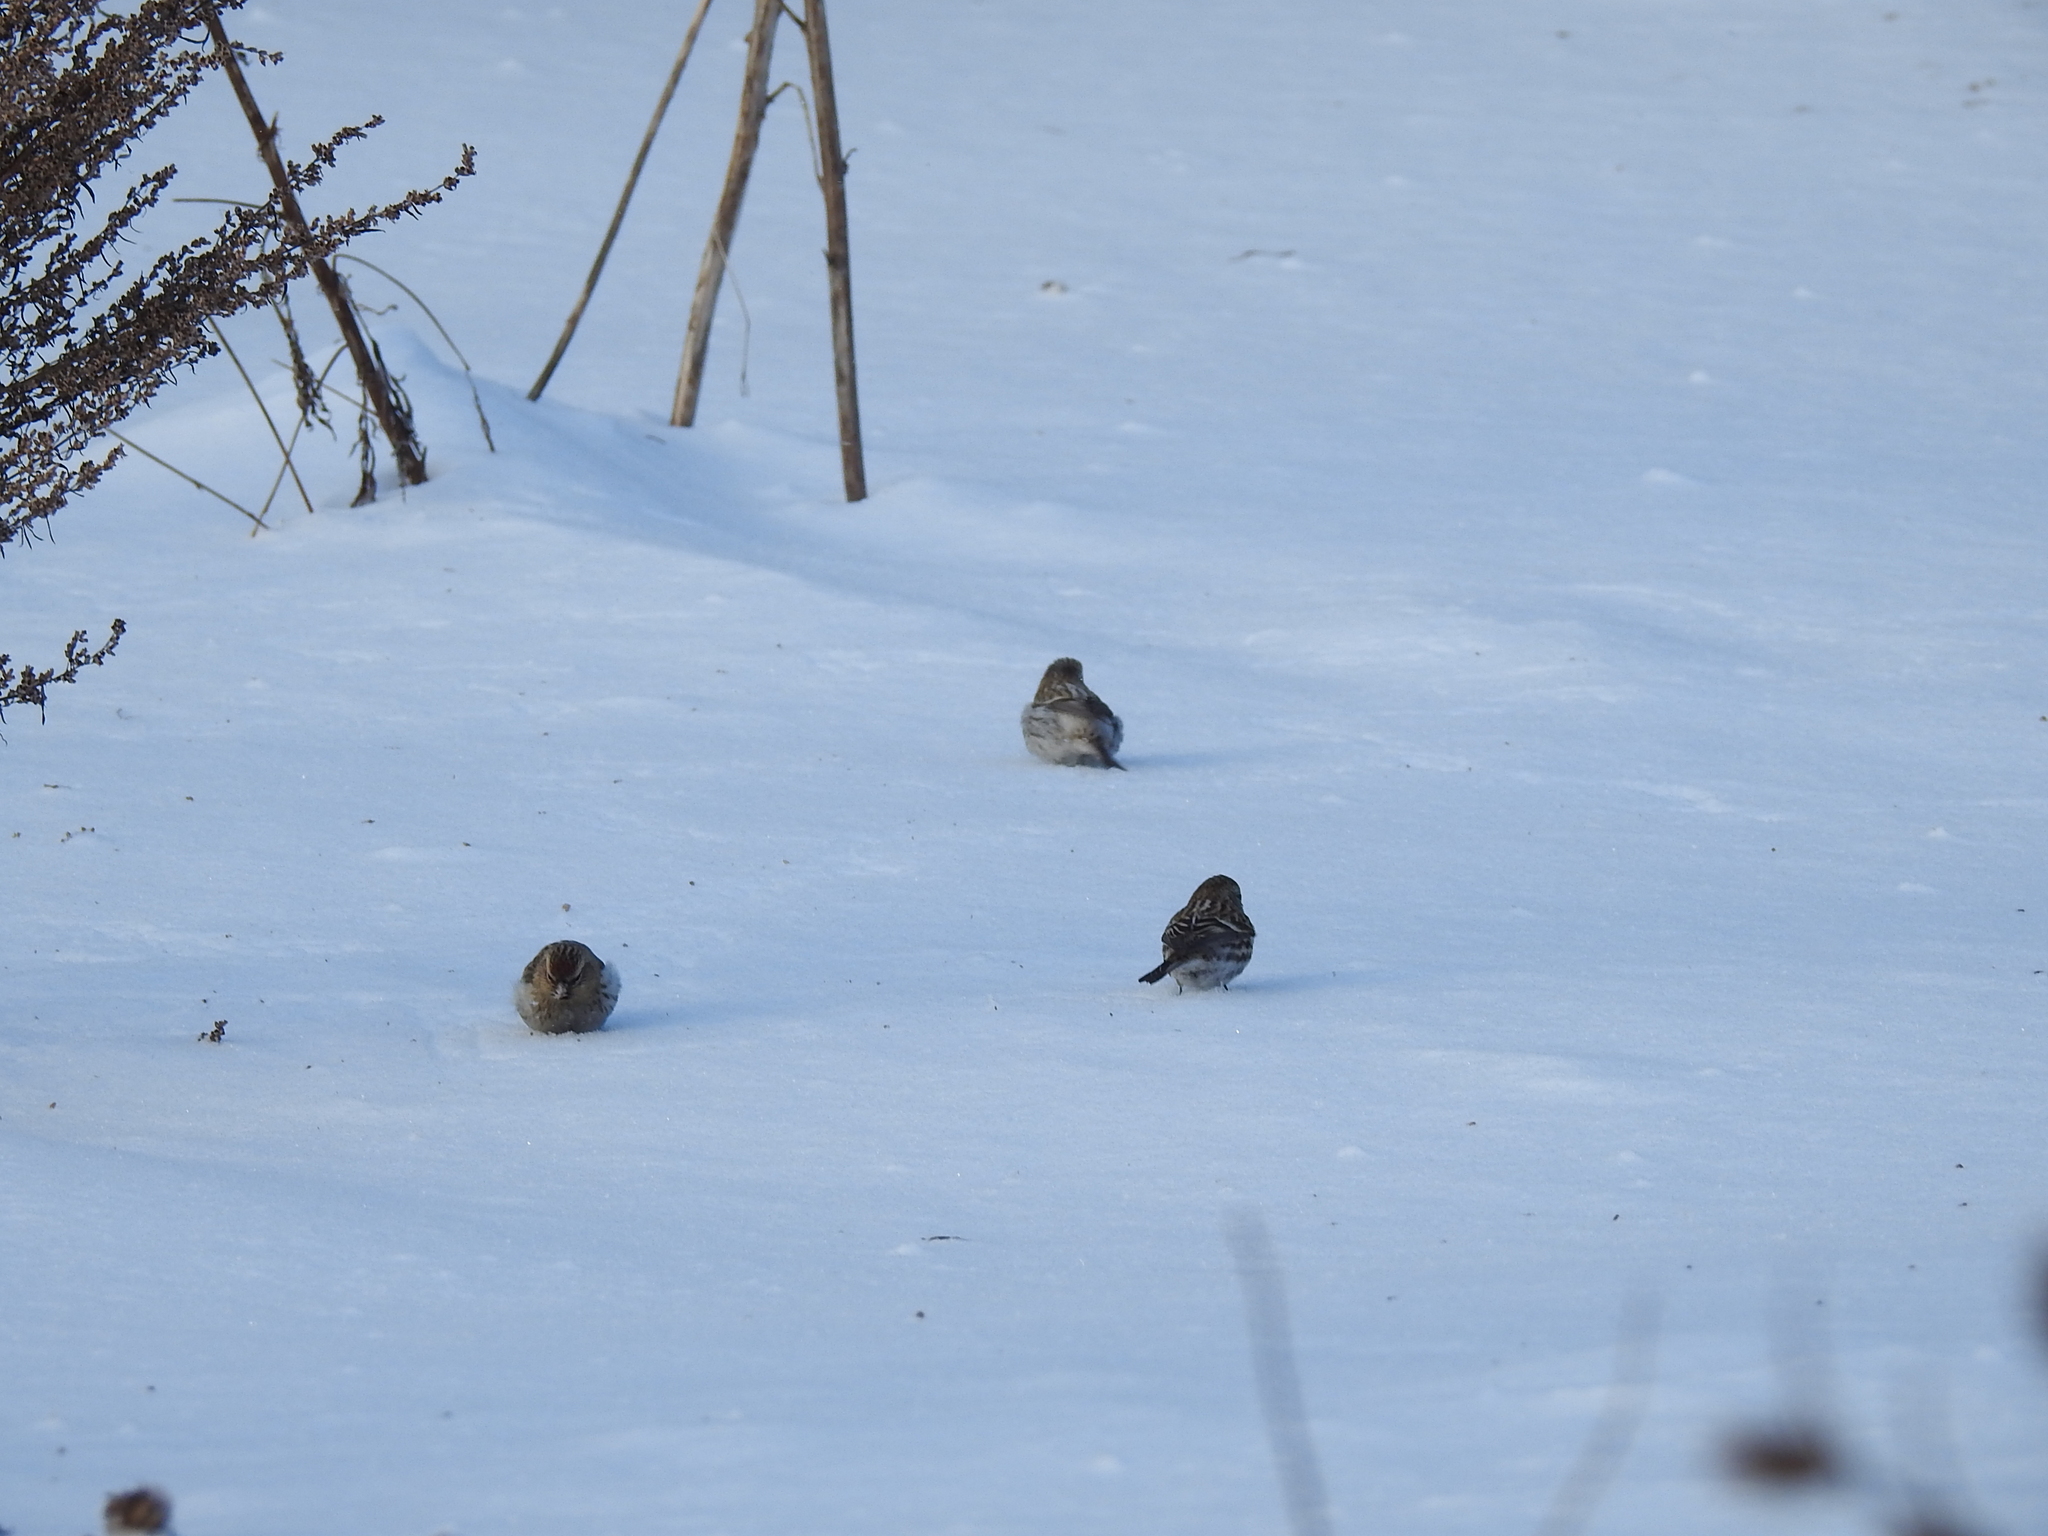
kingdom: Animalia
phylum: Chordata
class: Aves
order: Passeriformes
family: Fringillidae
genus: Acanthis
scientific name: Acanthis flammea
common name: Common redpoll
